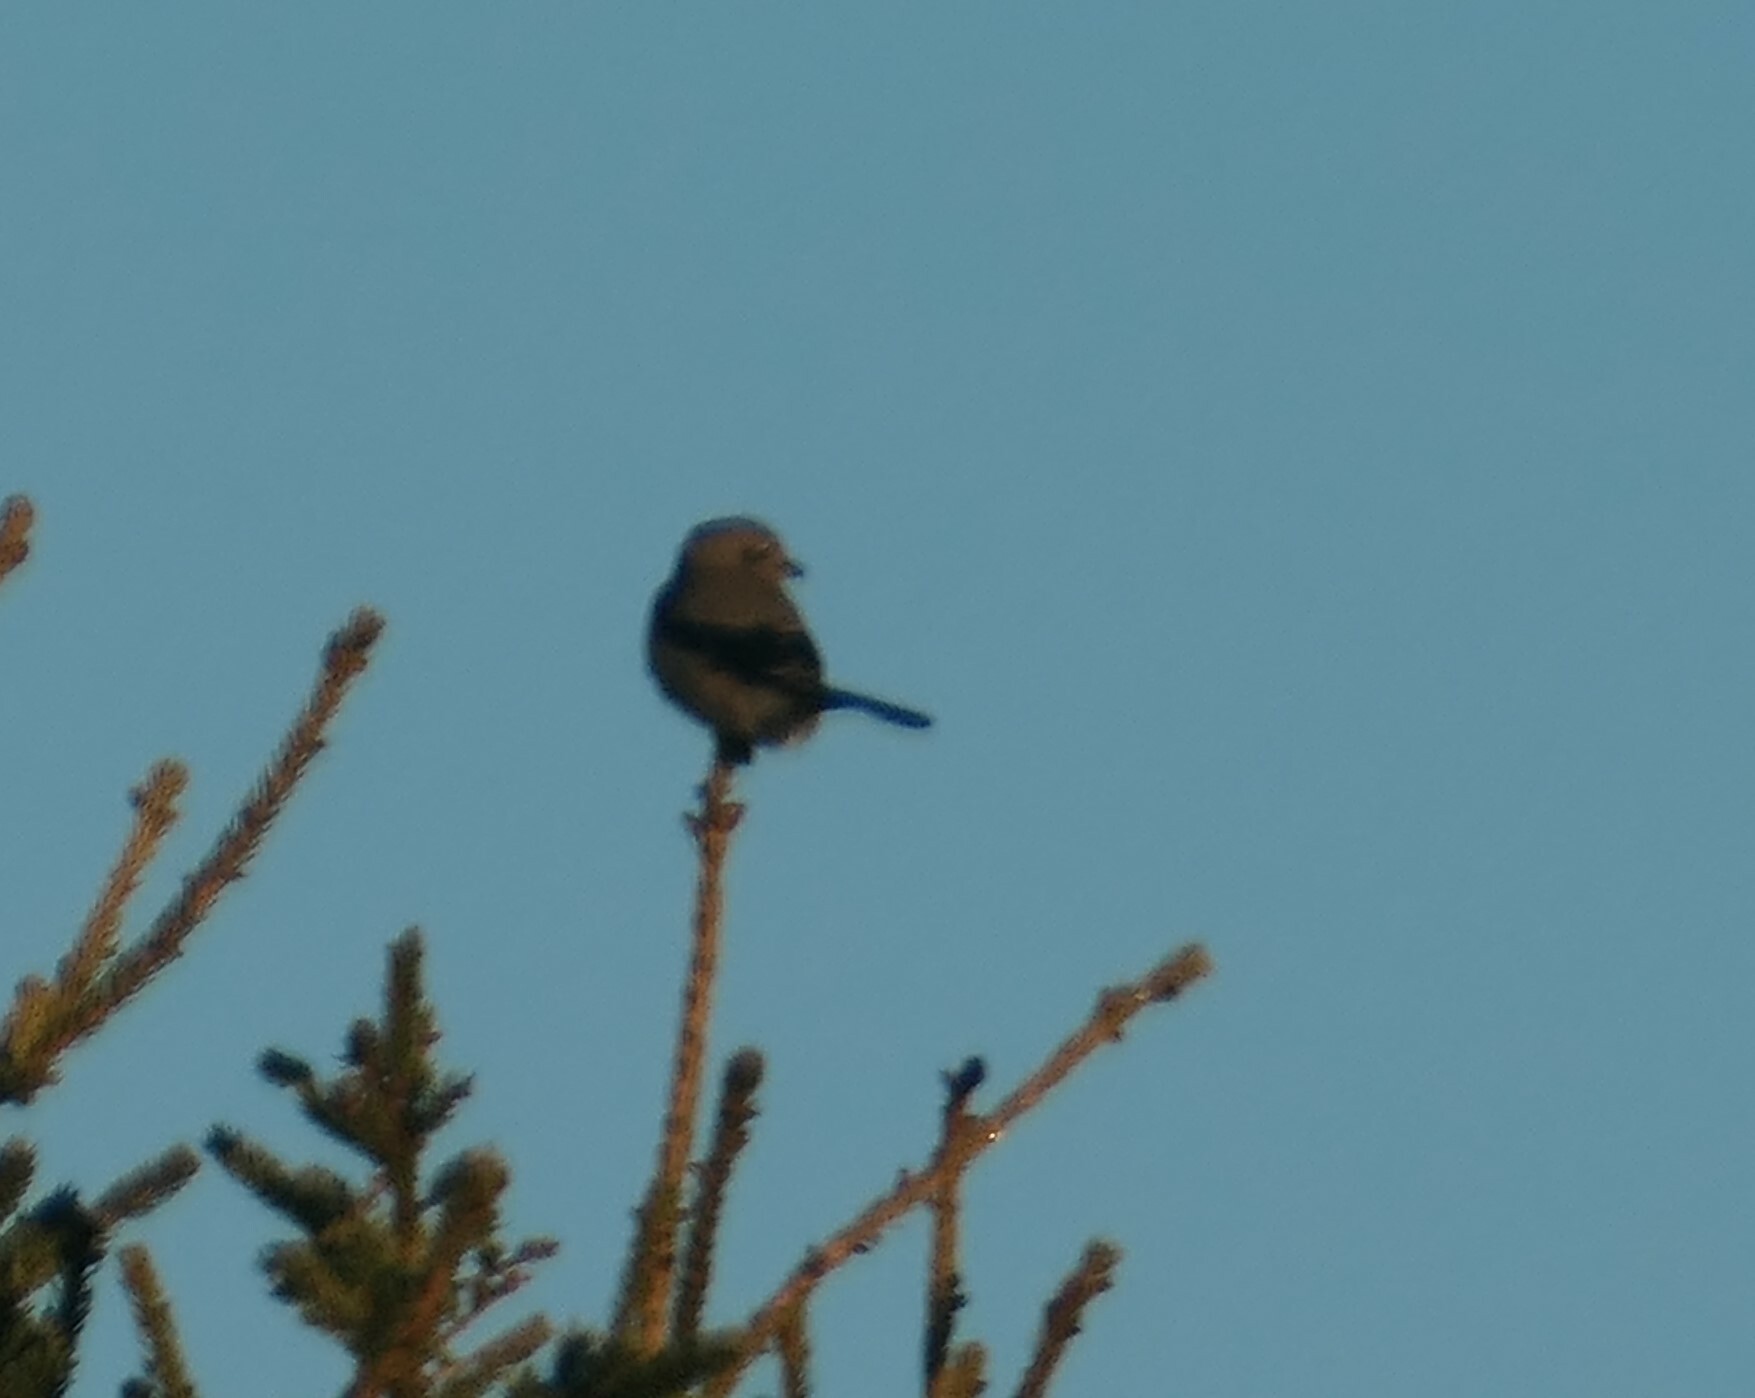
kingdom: Animalia
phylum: Chordata
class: Aves
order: Passeriformes
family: Laniidae
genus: Lanius
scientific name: Lanius borealis
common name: Northern shrike
